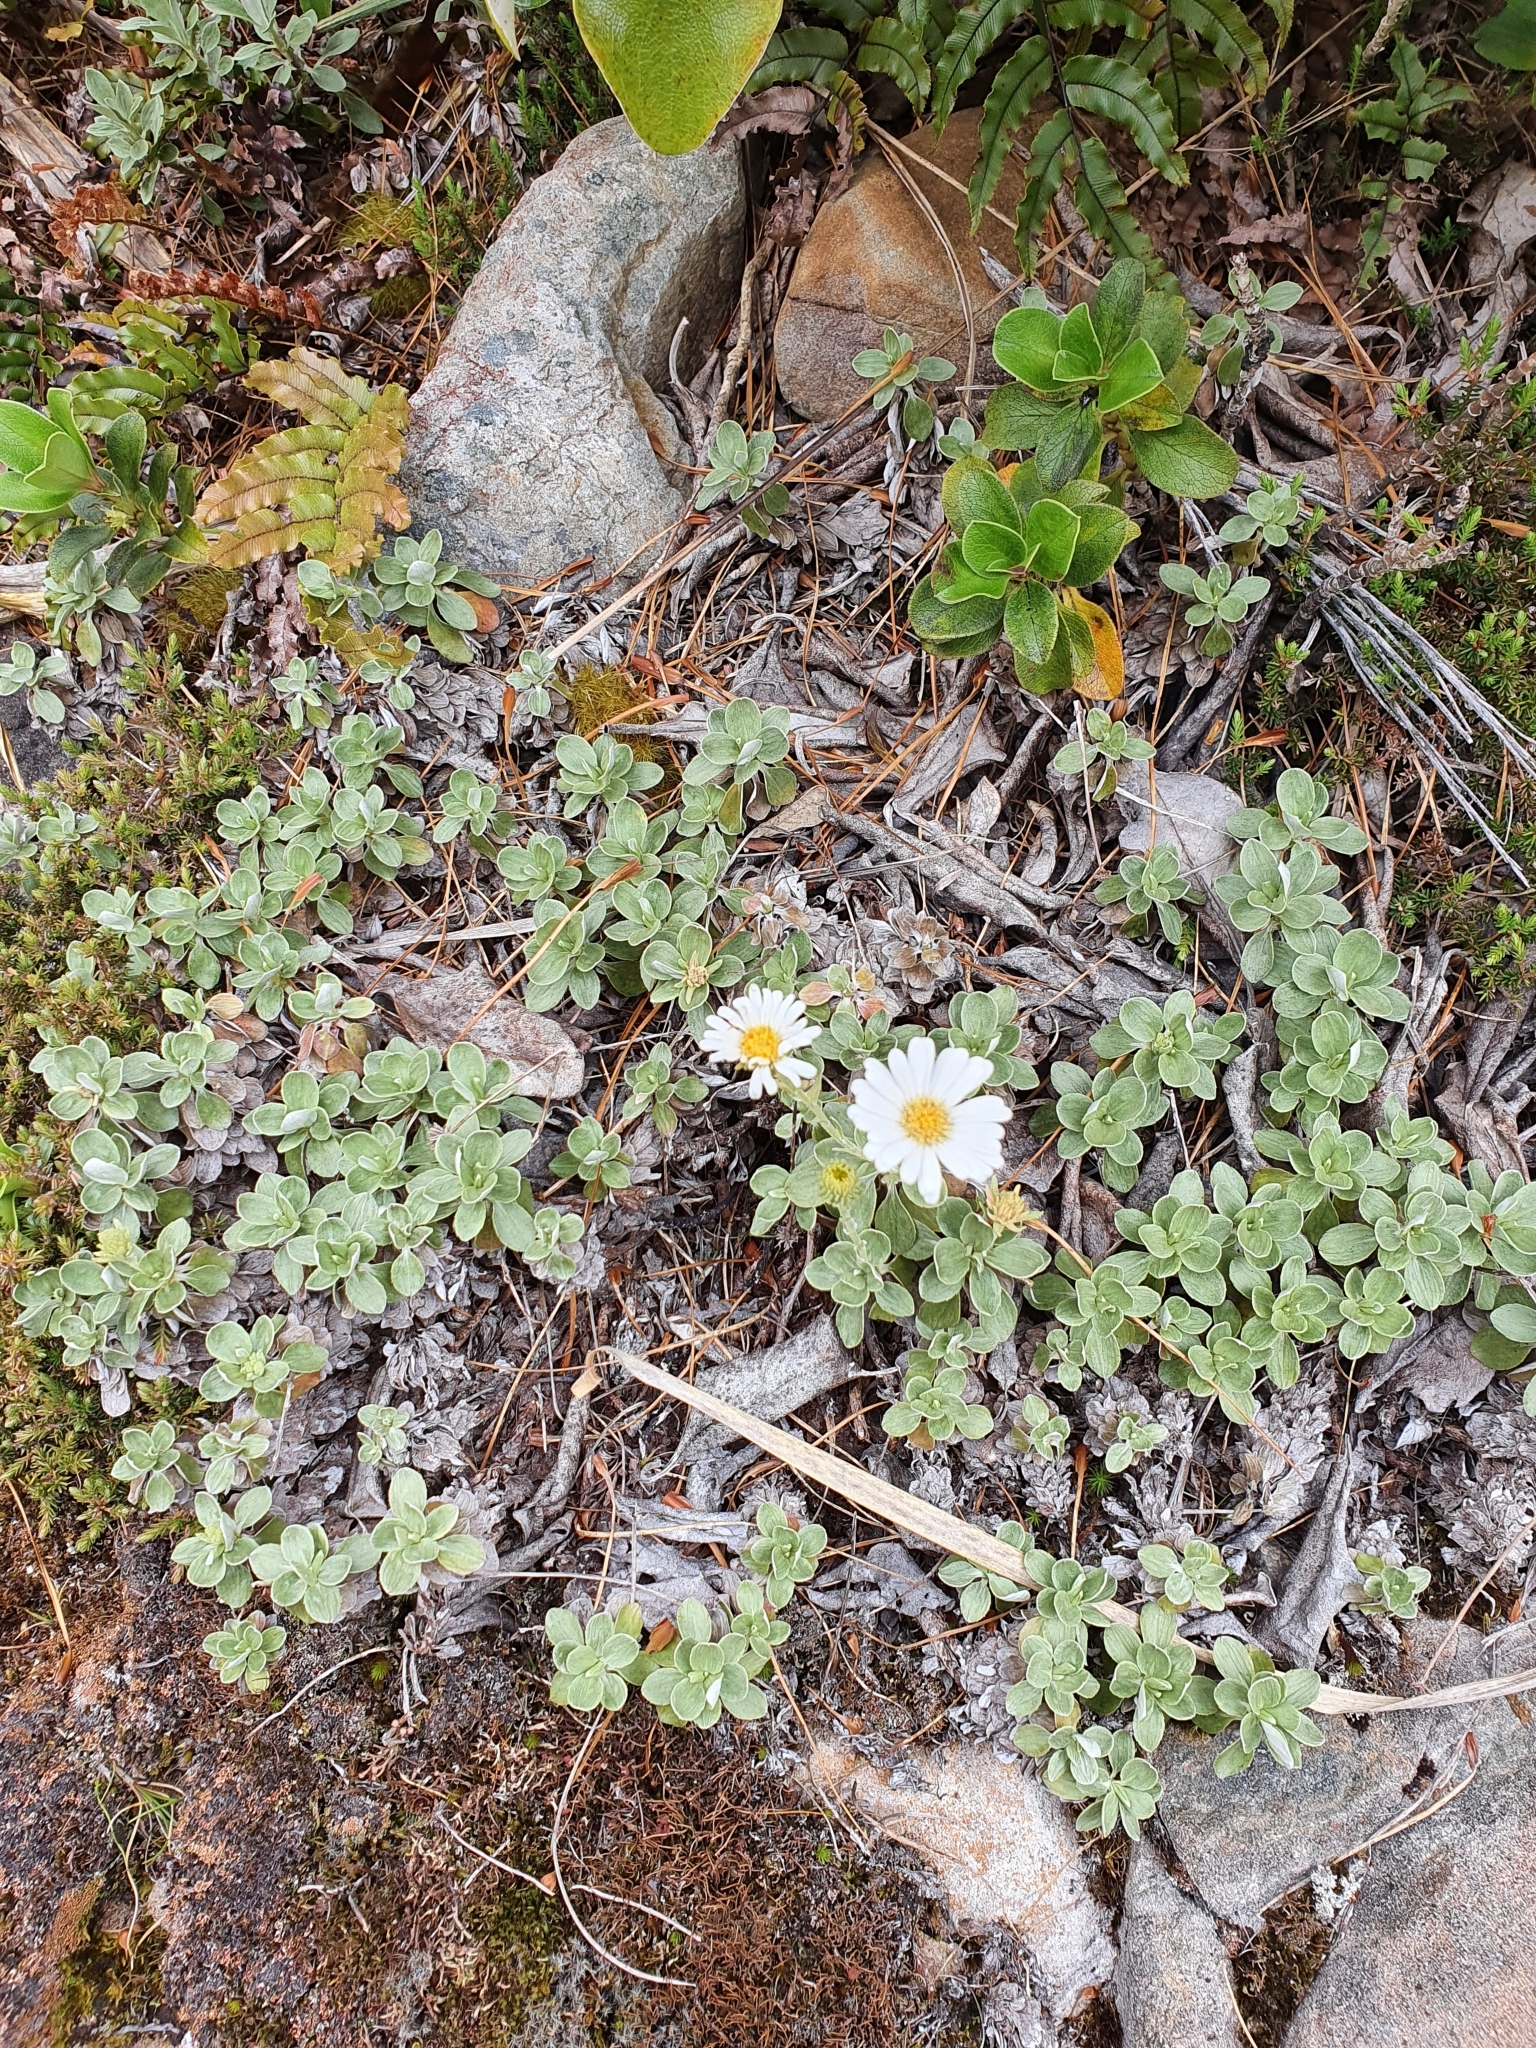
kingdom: Plantae
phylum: Tracheophyta
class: Magnoliopsida
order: Asterales
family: Asteraceae
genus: Celmisia
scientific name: Celmisia discolor
